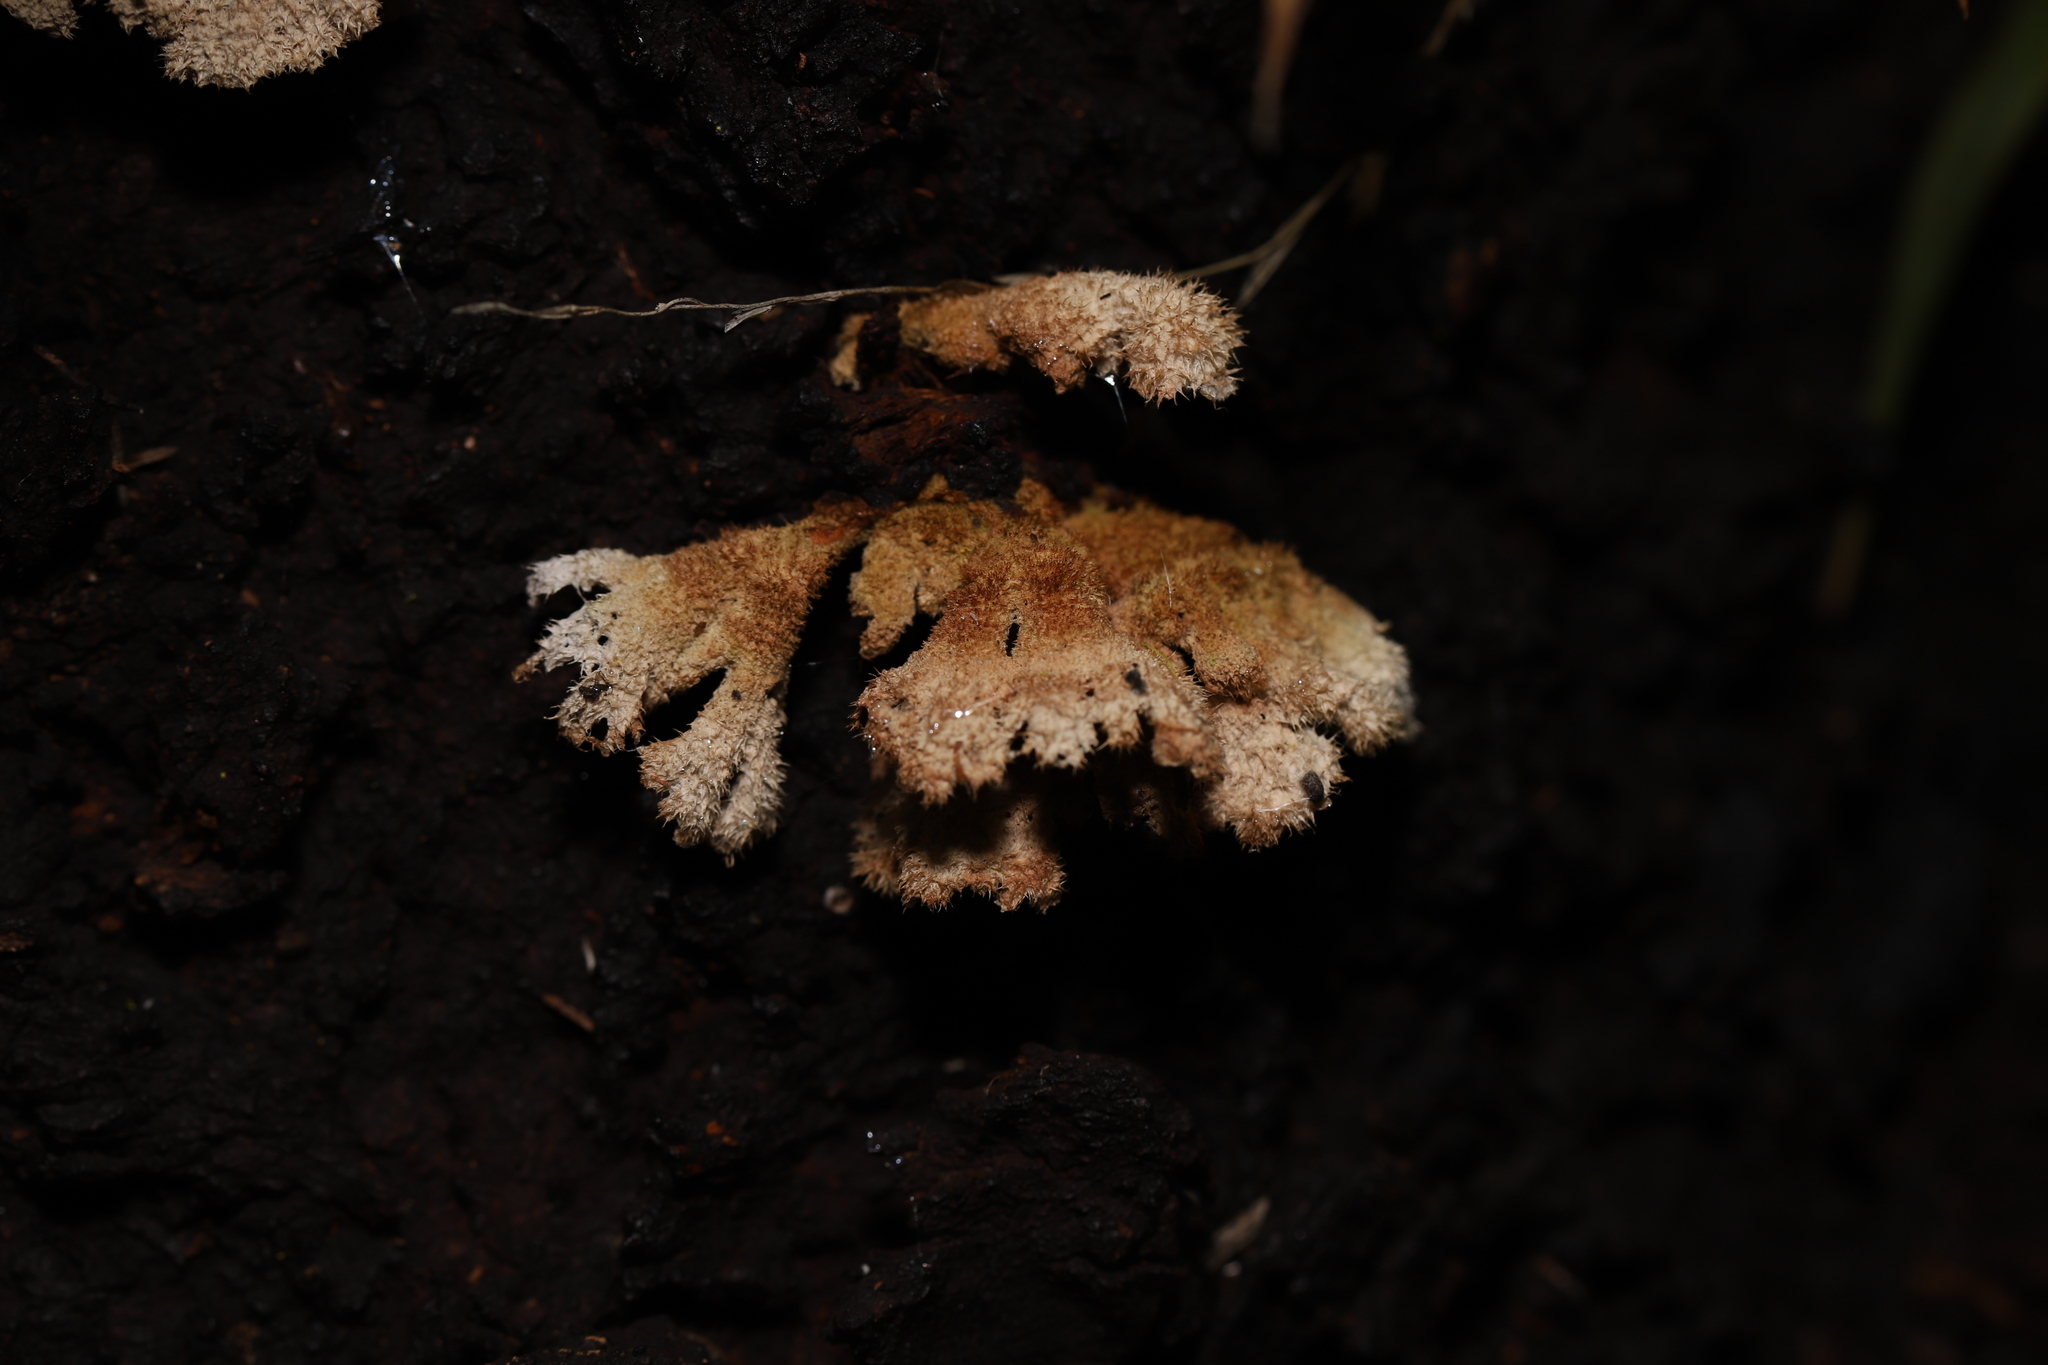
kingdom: Fungi
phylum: Basidiomycota
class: Agaricomycetes
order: Agaricales
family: Schizophyllaceae
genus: Schizophyllum
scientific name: Schizophyllum commune
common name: Common porecrust
